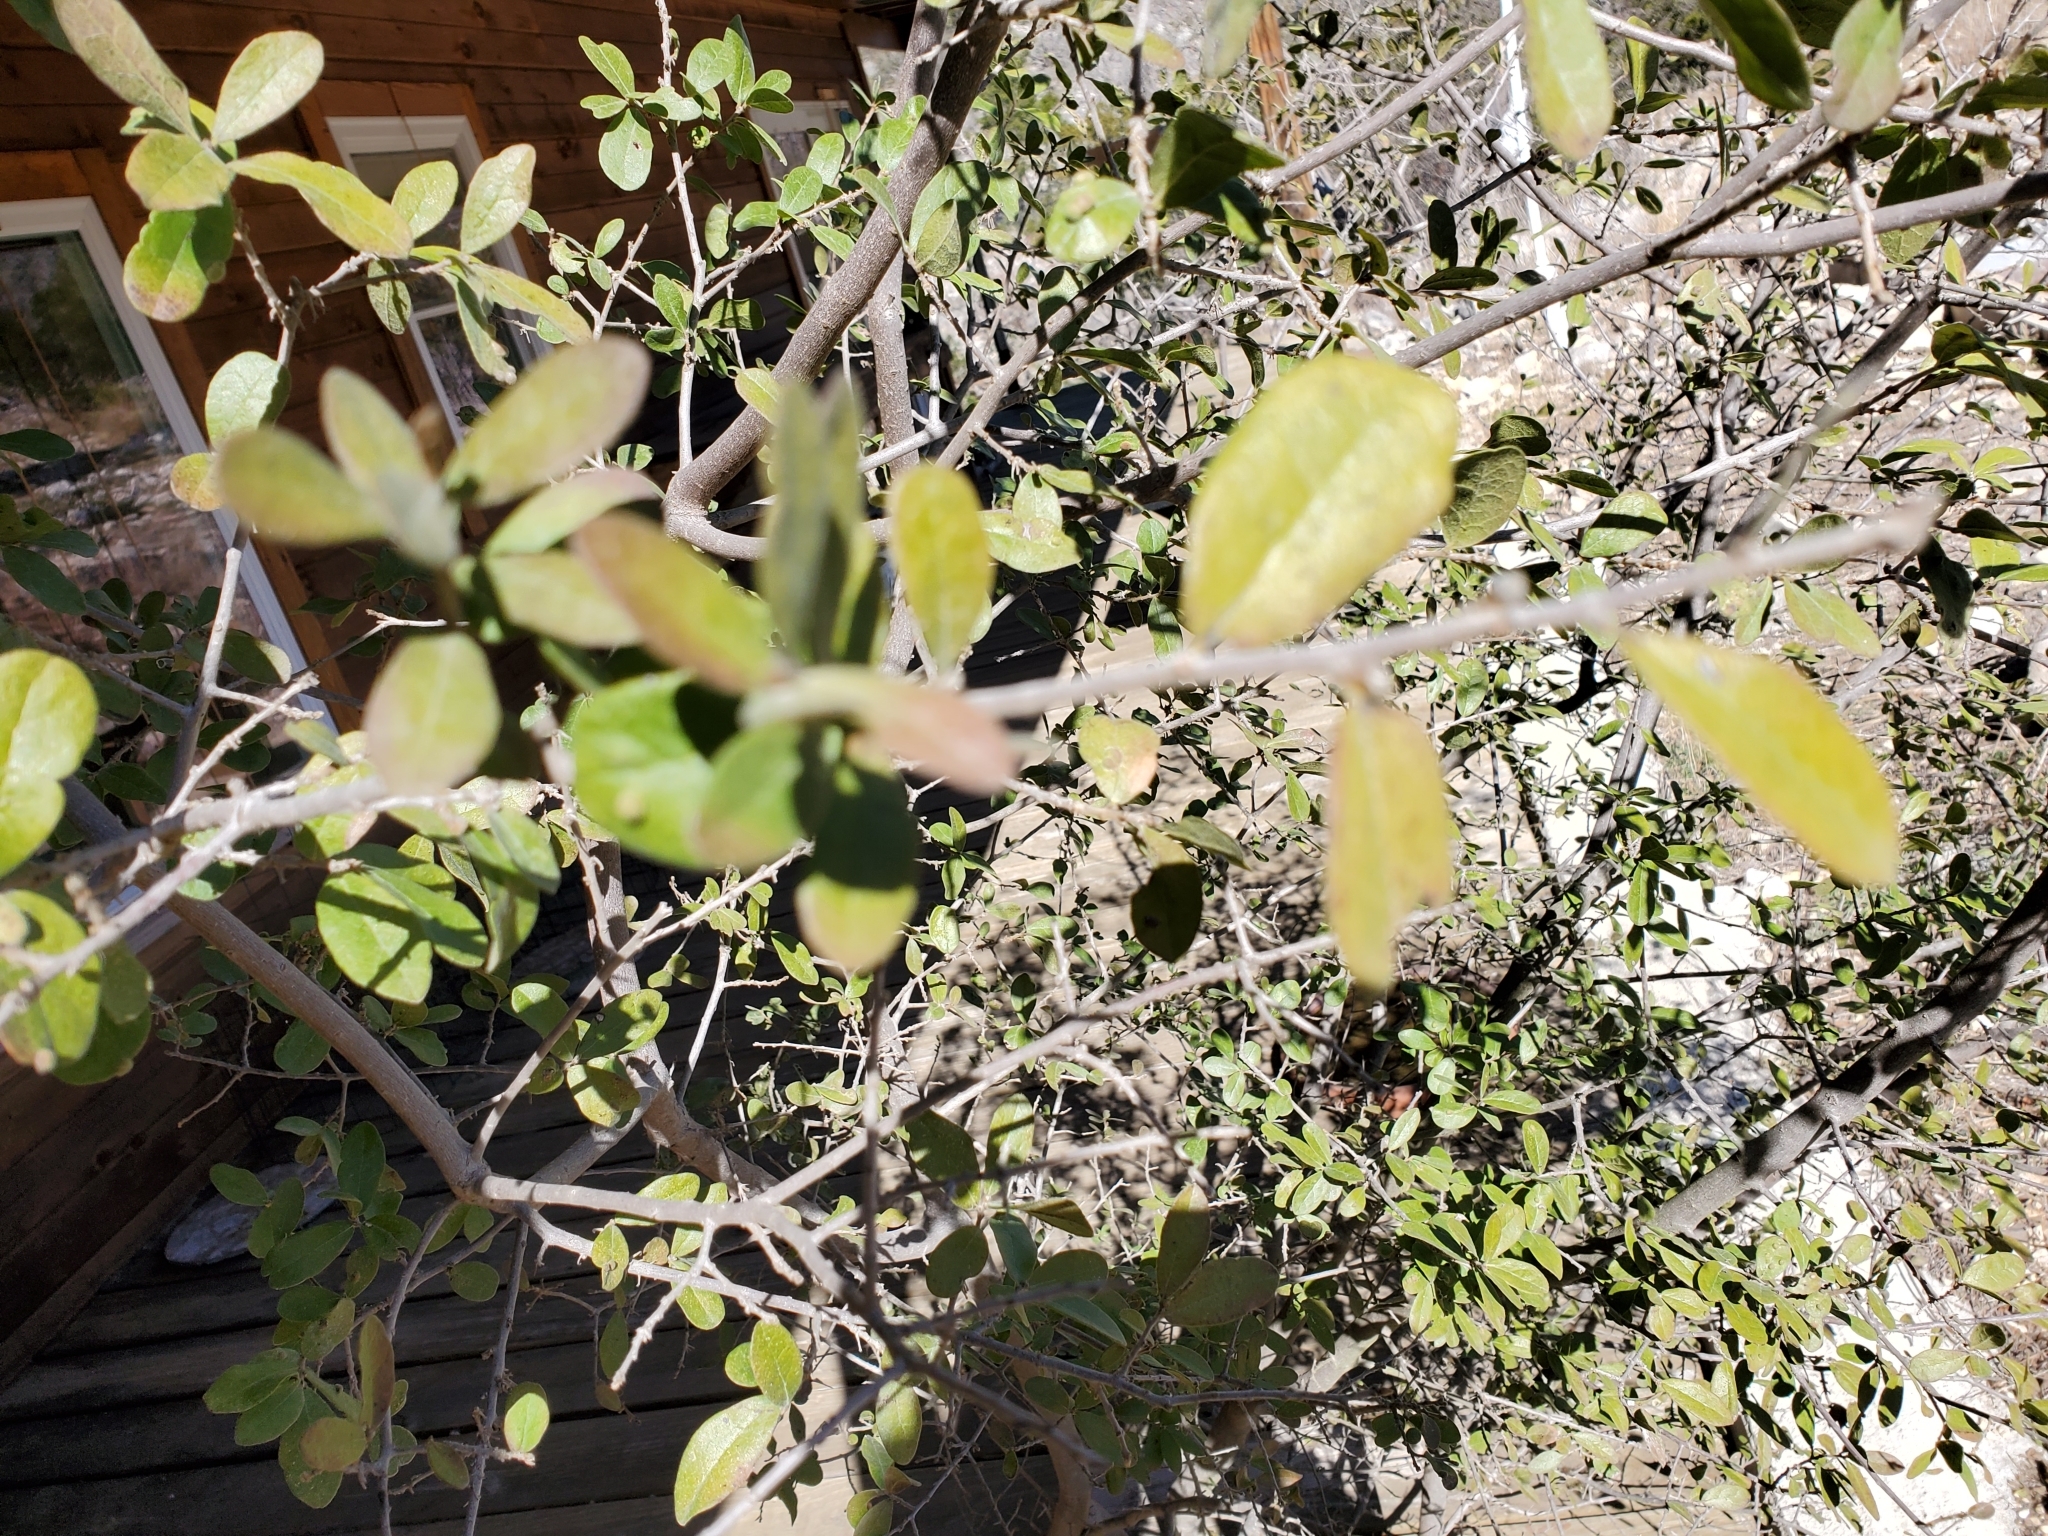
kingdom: Plantae
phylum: Tracheophyta
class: Magnoliopsida
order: Ericales
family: Ebenaceae
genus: Diospyros
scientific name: Diospyros texana
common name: Texas persimmon
